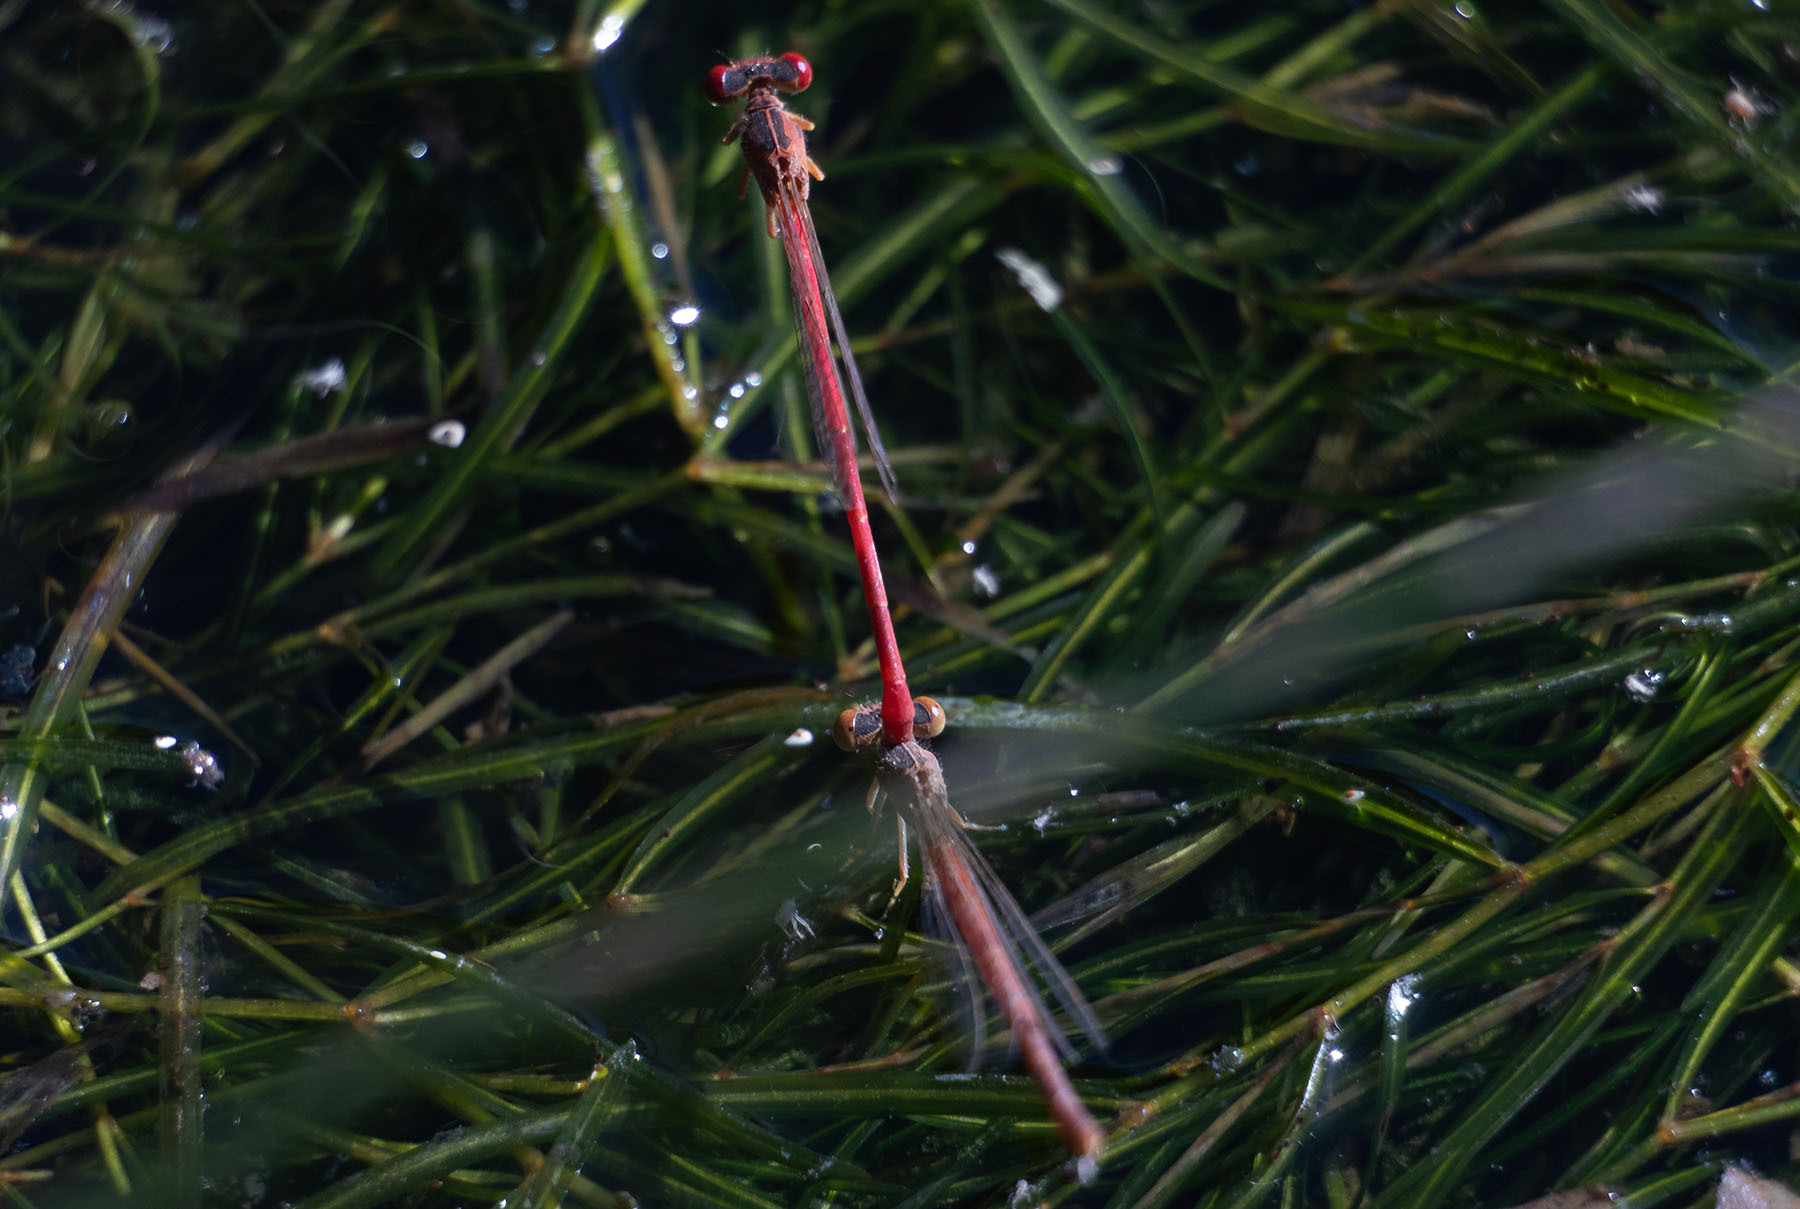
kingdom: Animalia
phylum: Arthropoda
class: Insecta
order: Odonata
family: Coenagrionidae
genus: Telebasis
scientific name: Telebasis salva
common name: Desert firetail
